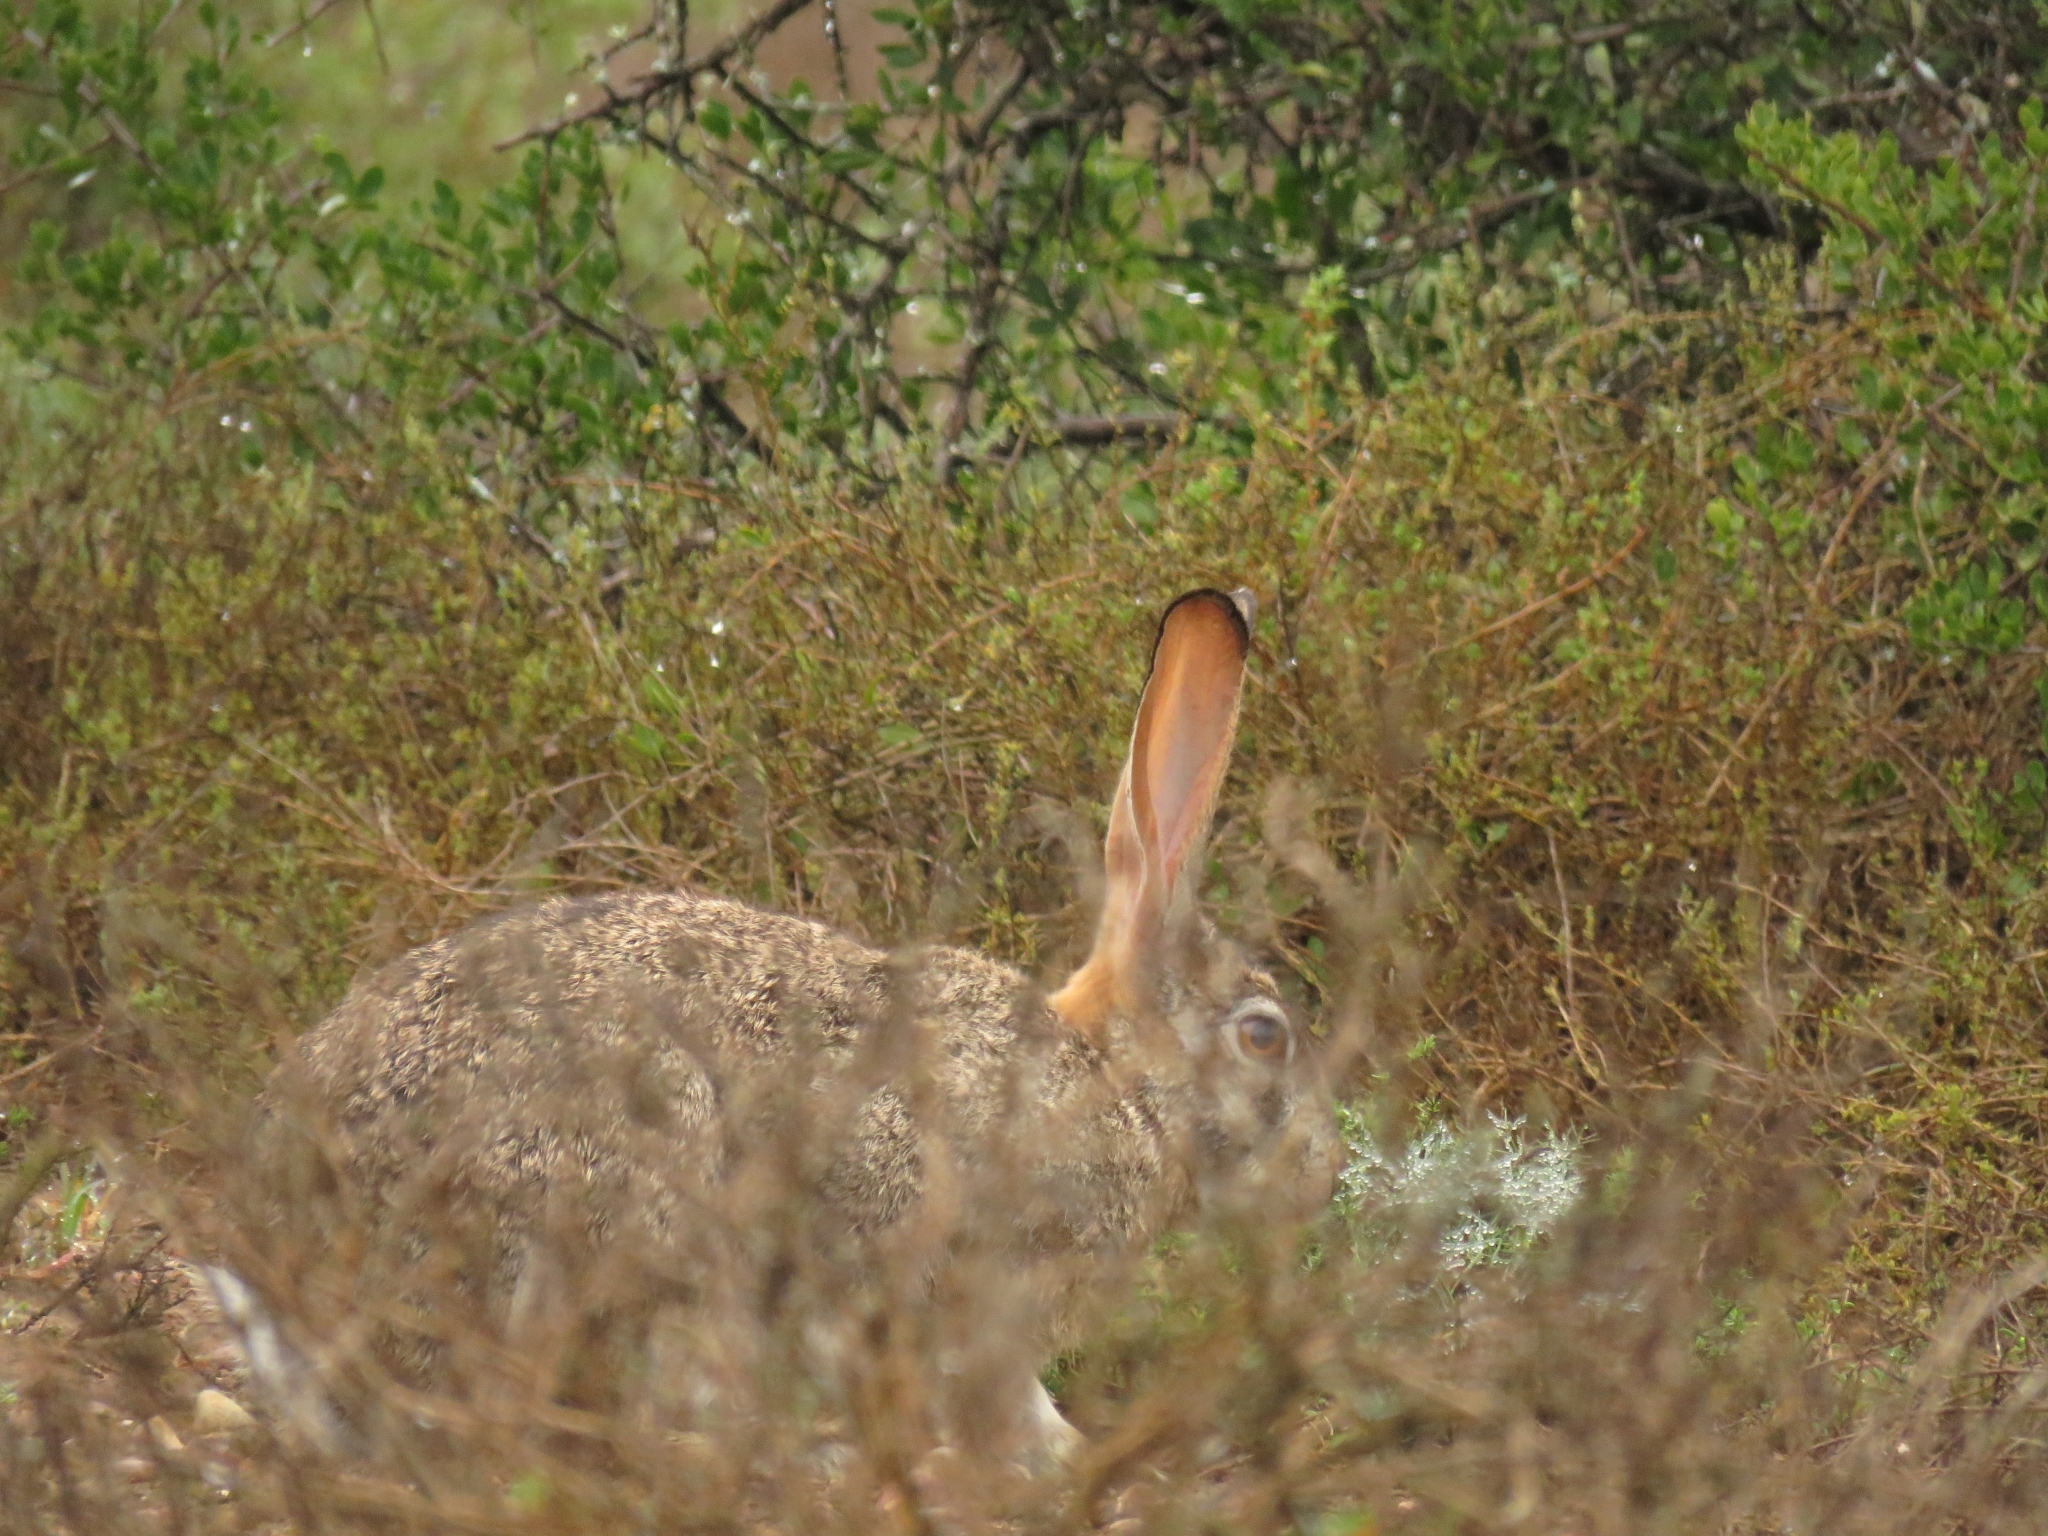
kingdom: Animalia
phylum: Chordata
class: Mammalia
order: Lagomorpha
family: Leporidae
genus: Lepus
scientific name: Lepus saxatilis
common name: Scrub hare
